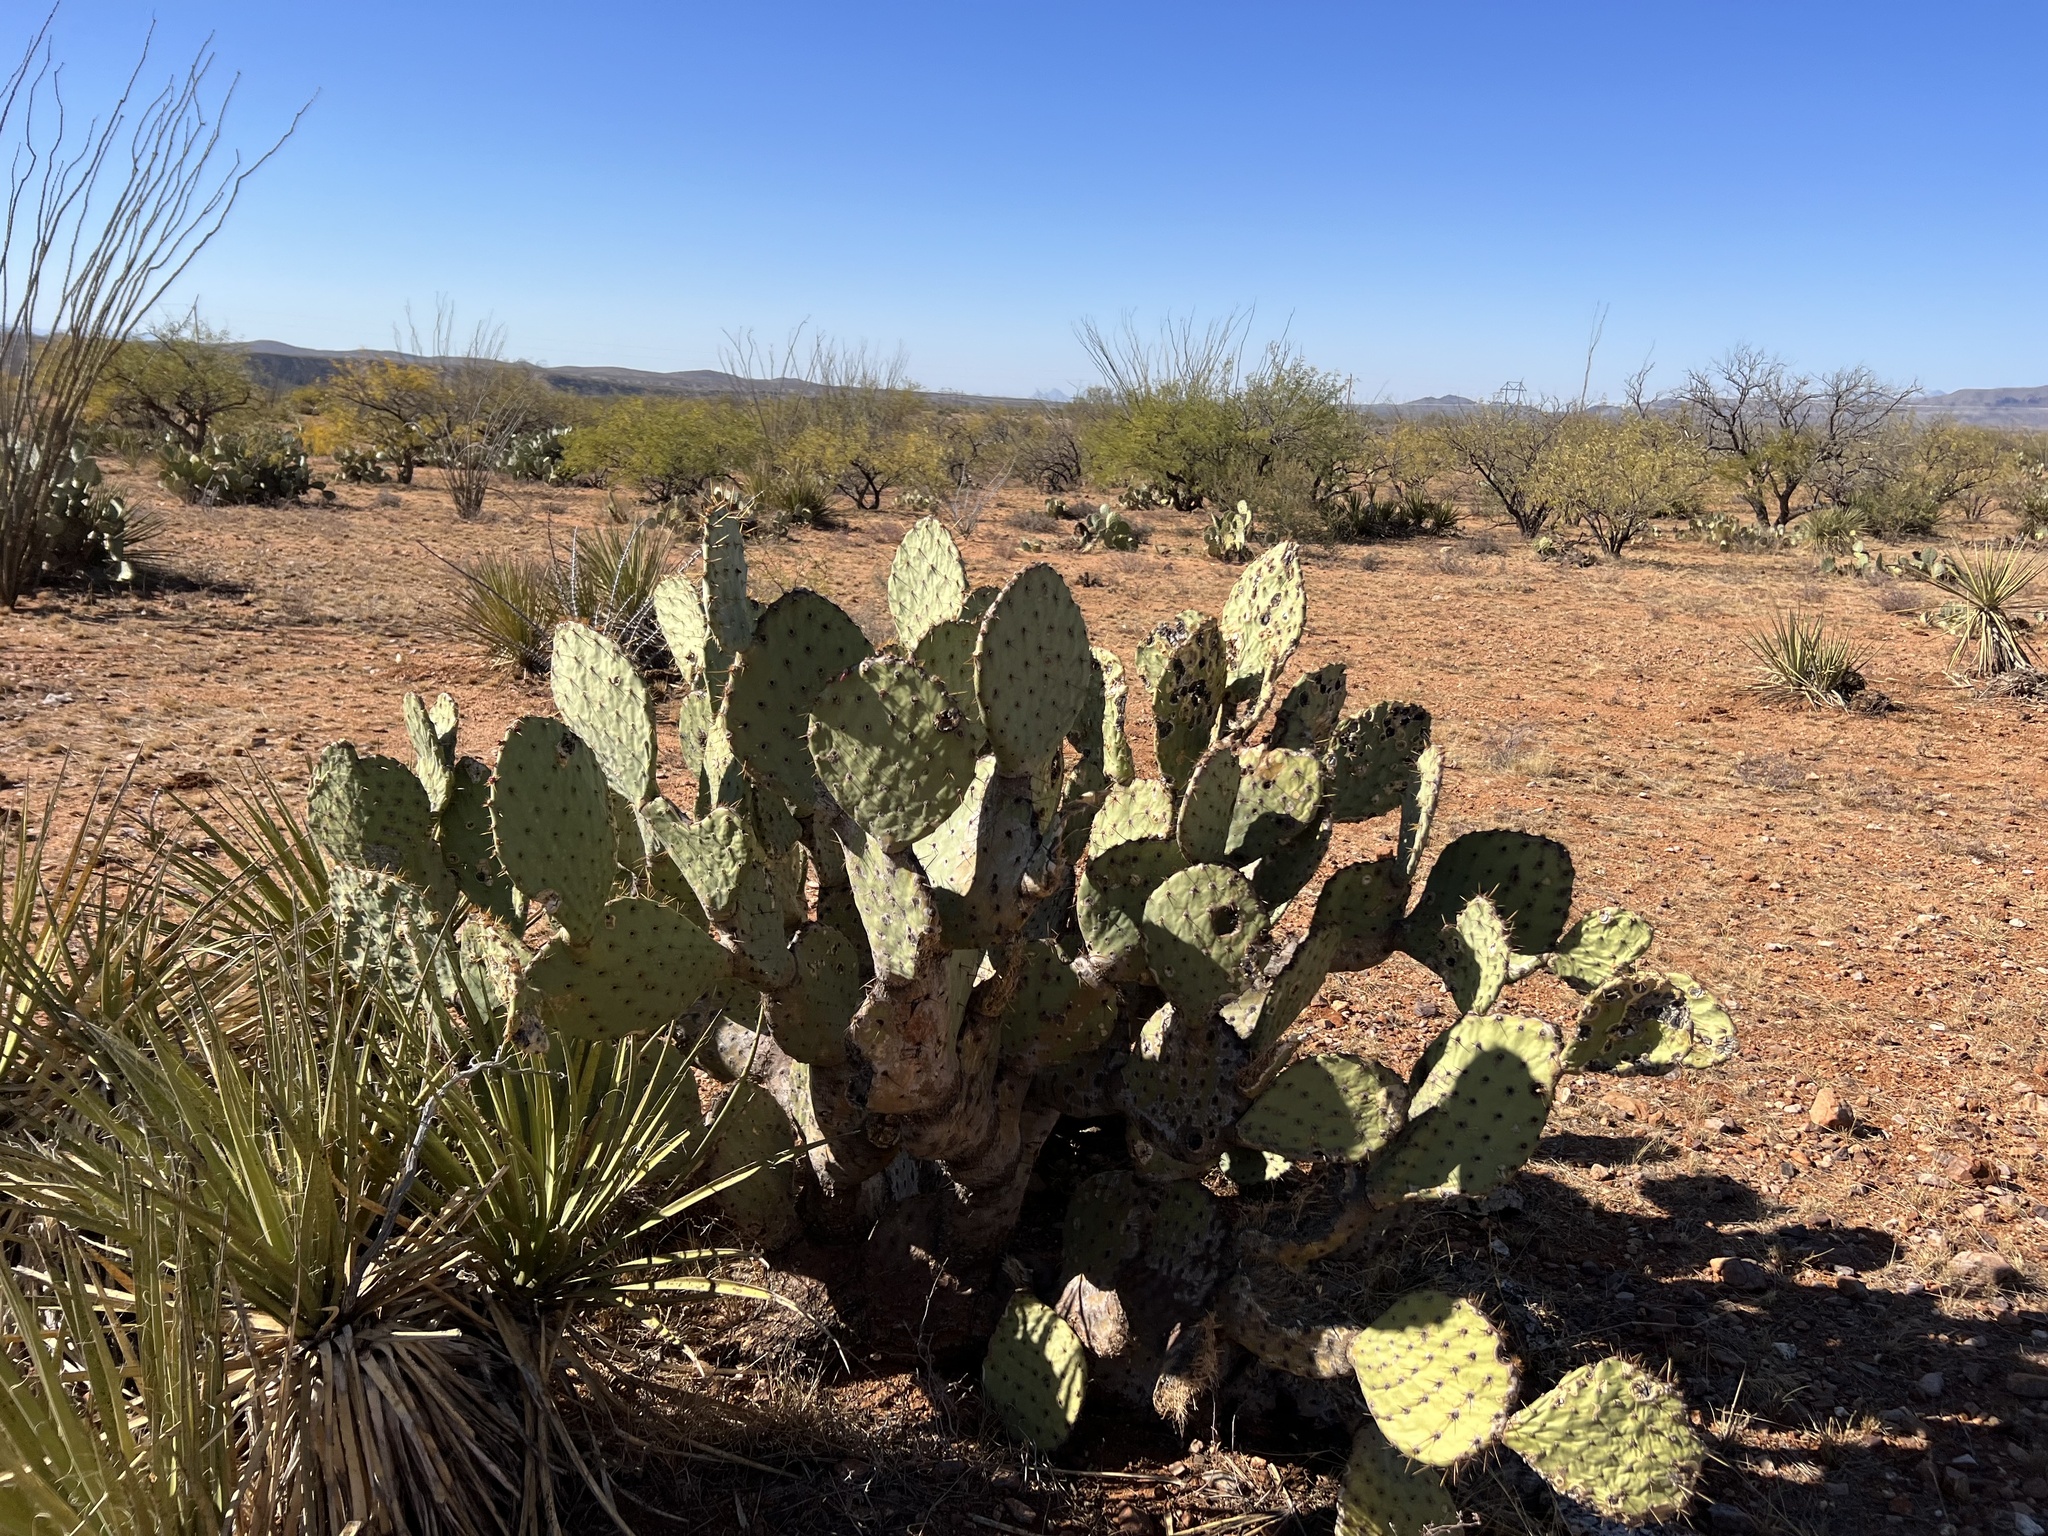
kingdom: Plantae
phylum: Tracheophyta
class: Magnoliopsida
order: Caryophyllales
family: Cactaceae
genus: Opuntia
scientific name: Opuntia engelmannii
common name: Cactus-apple
